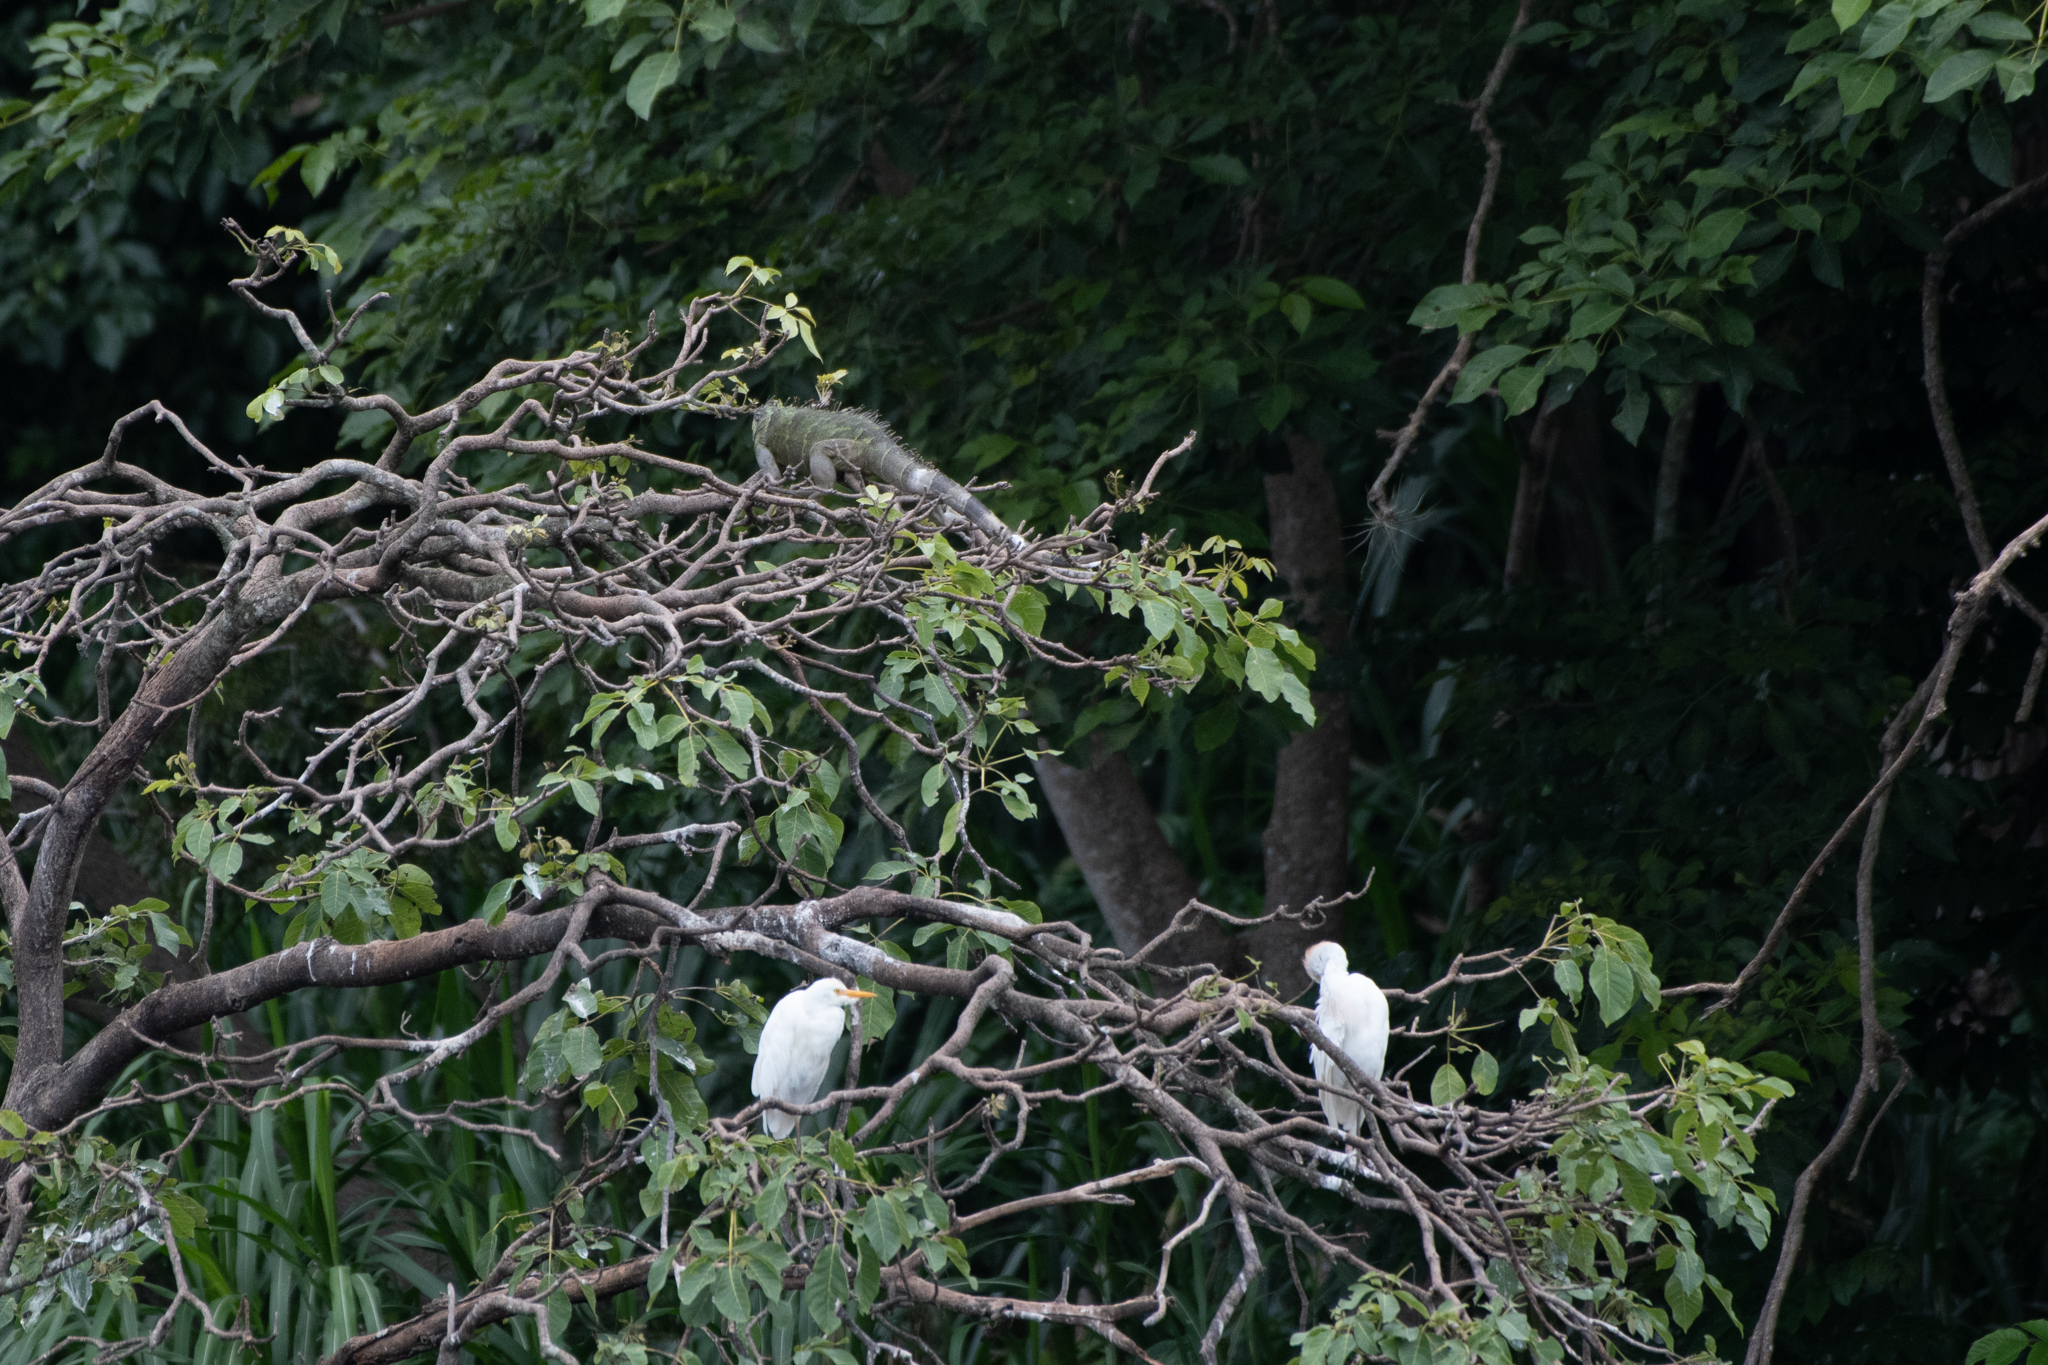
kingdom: Animalia
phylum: Chordata
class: Aves
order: Pelecaniformes
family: Ardeidae
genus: Bubulcus
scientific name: Bubulcus ibis
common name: Cattle egret
